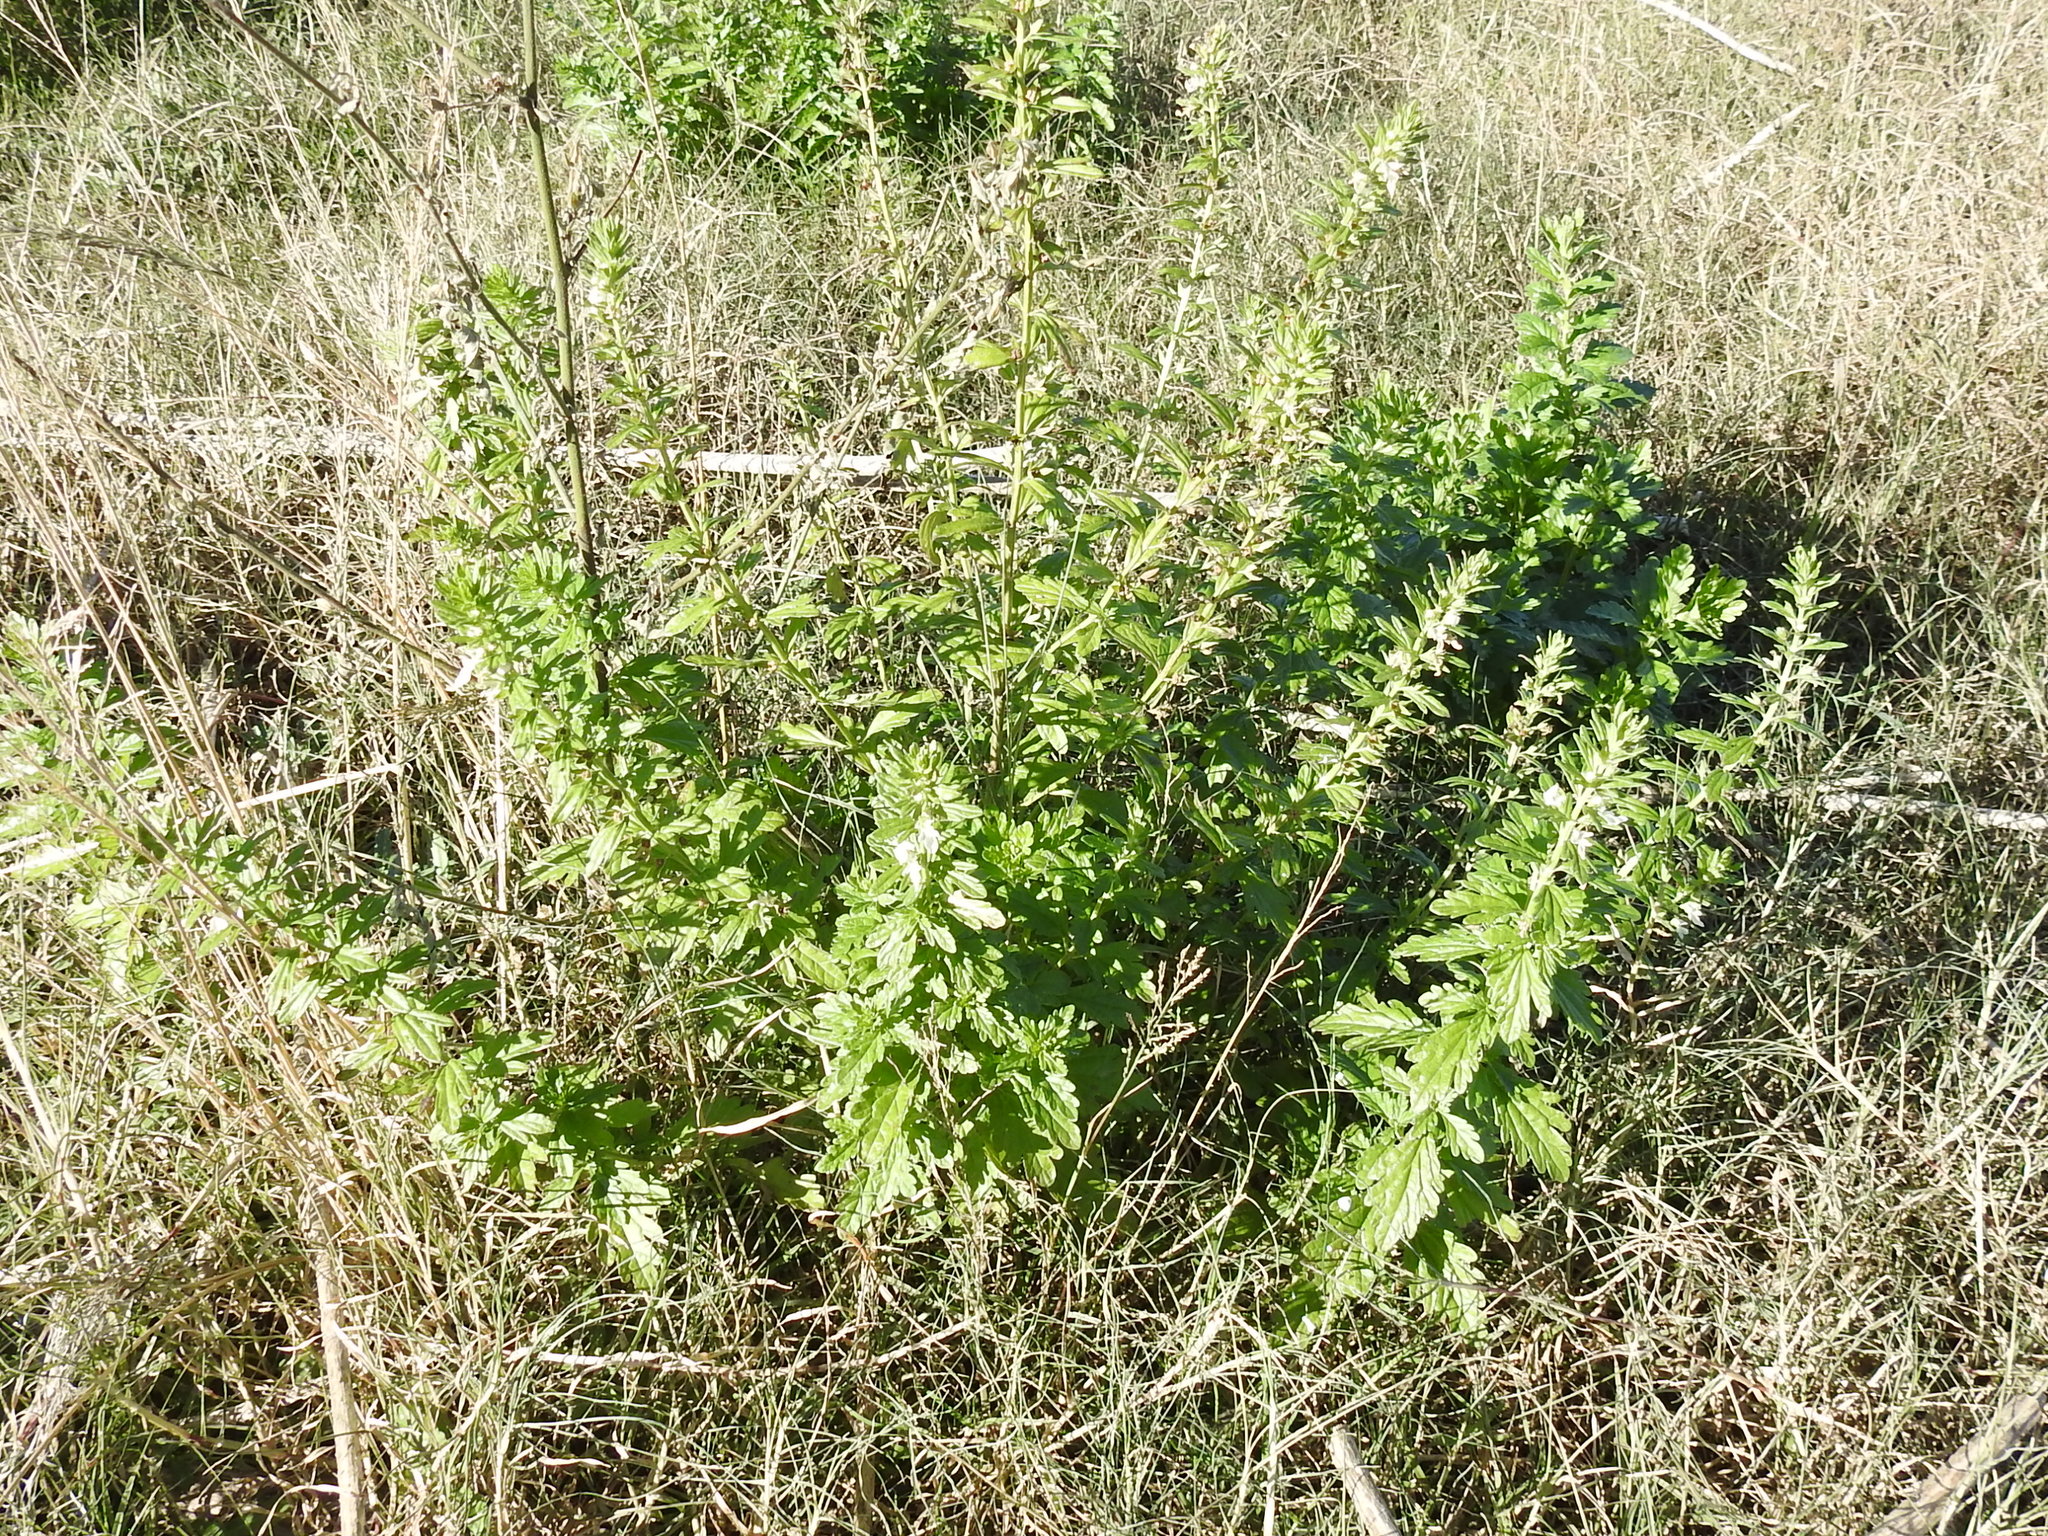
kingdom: Plantae
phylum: Tracheophyta
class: Magnoliopsida
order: Lamiales
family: Lamiaceae
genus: Teucrium
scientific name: Teucrium cubense
